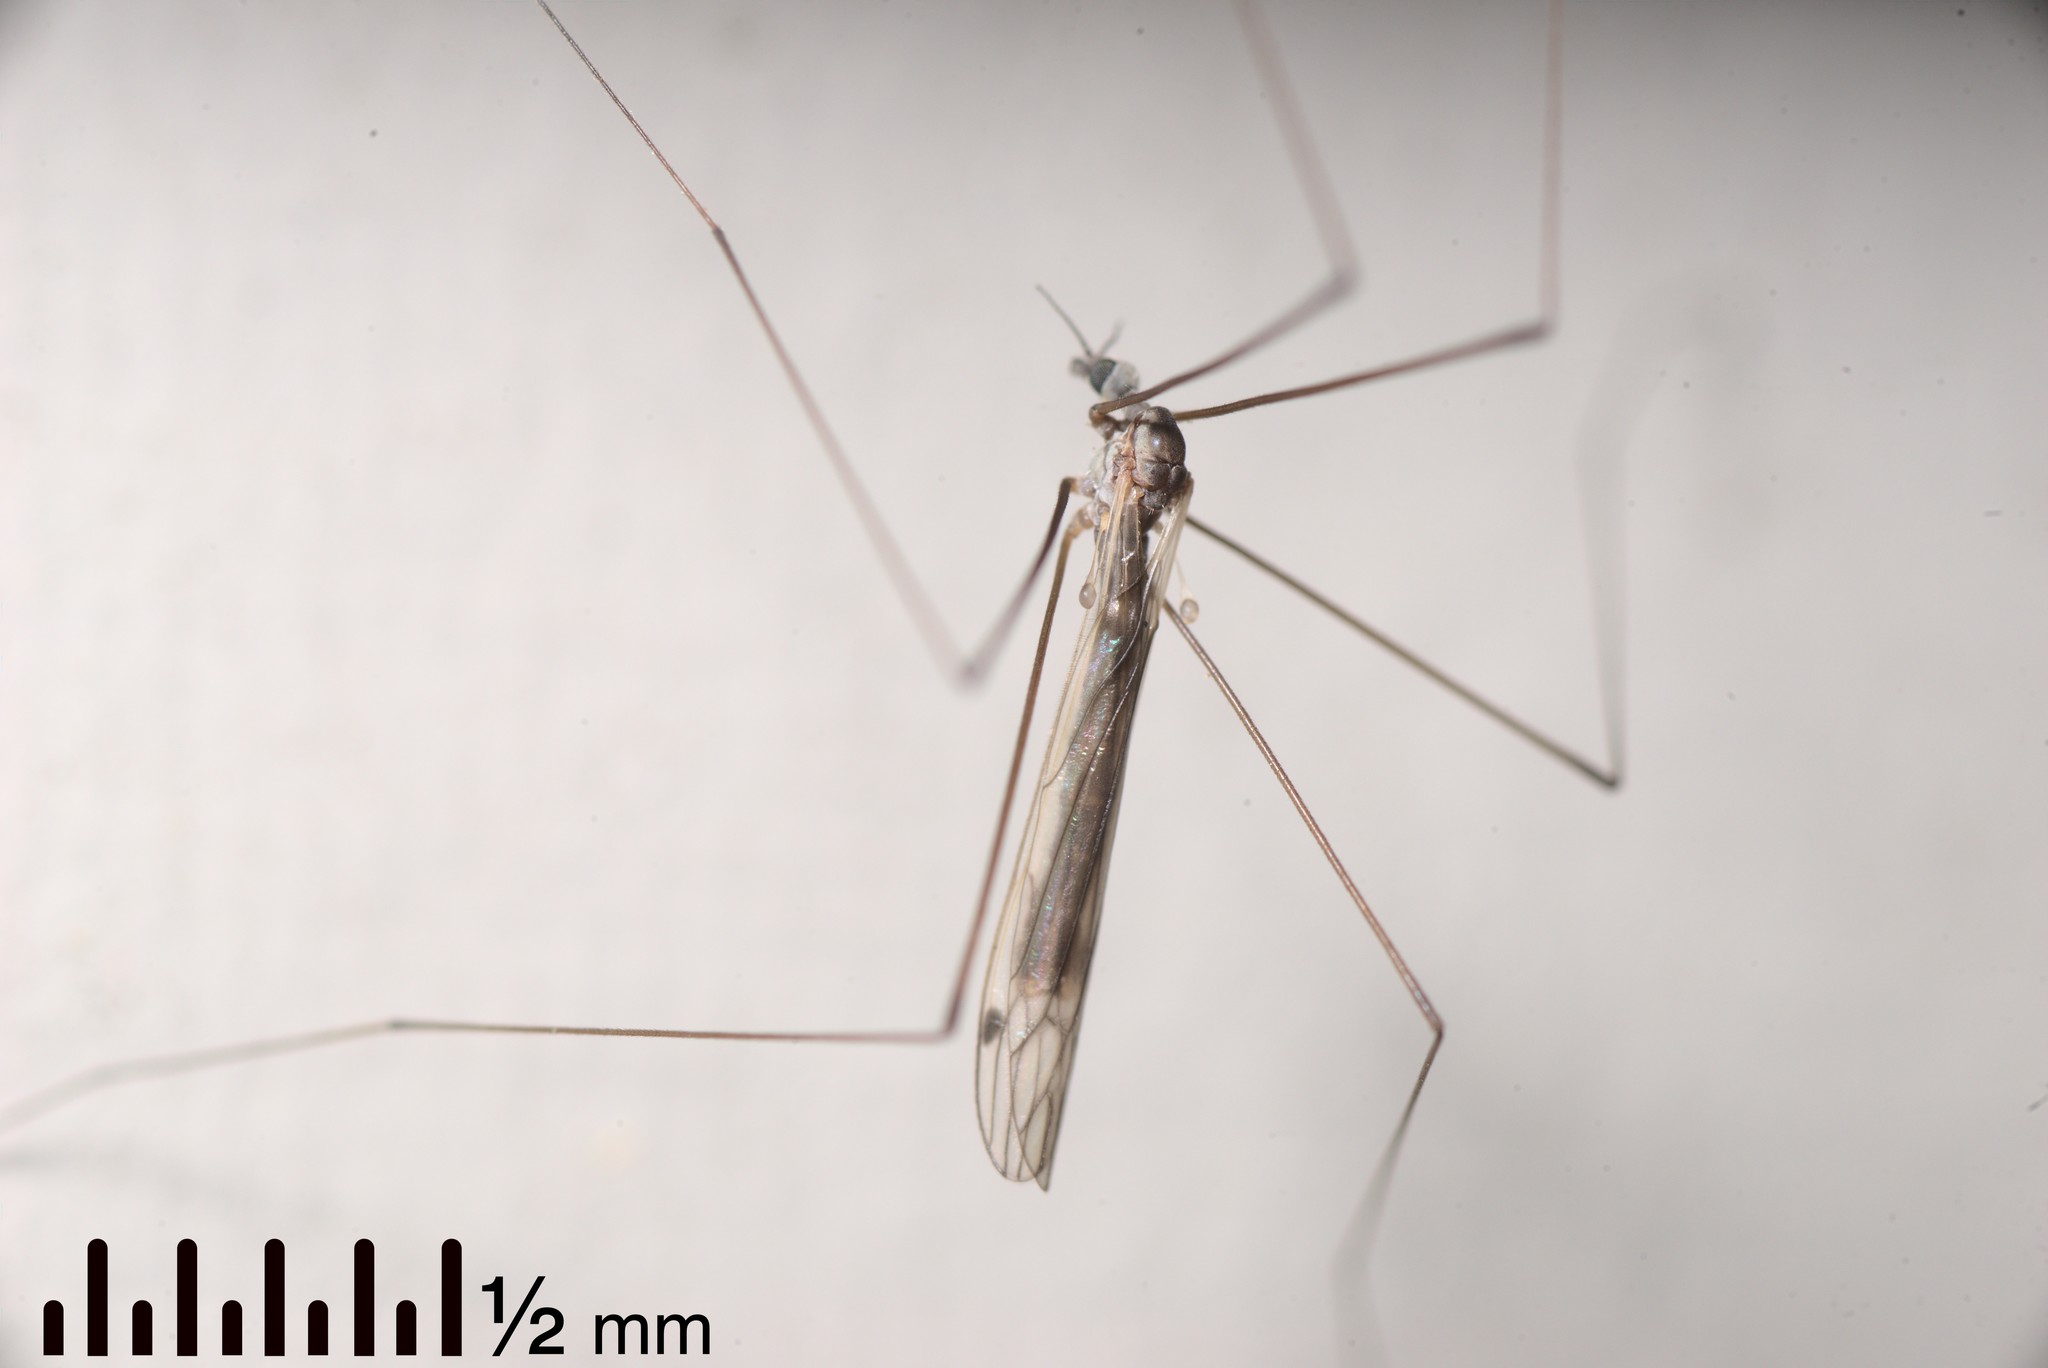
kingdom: Animalia
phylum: Arthropoda
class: Insecta
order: Diptera
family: Limoniidae
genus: Dicranomyia
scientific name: Dicranomyia aegrotans
